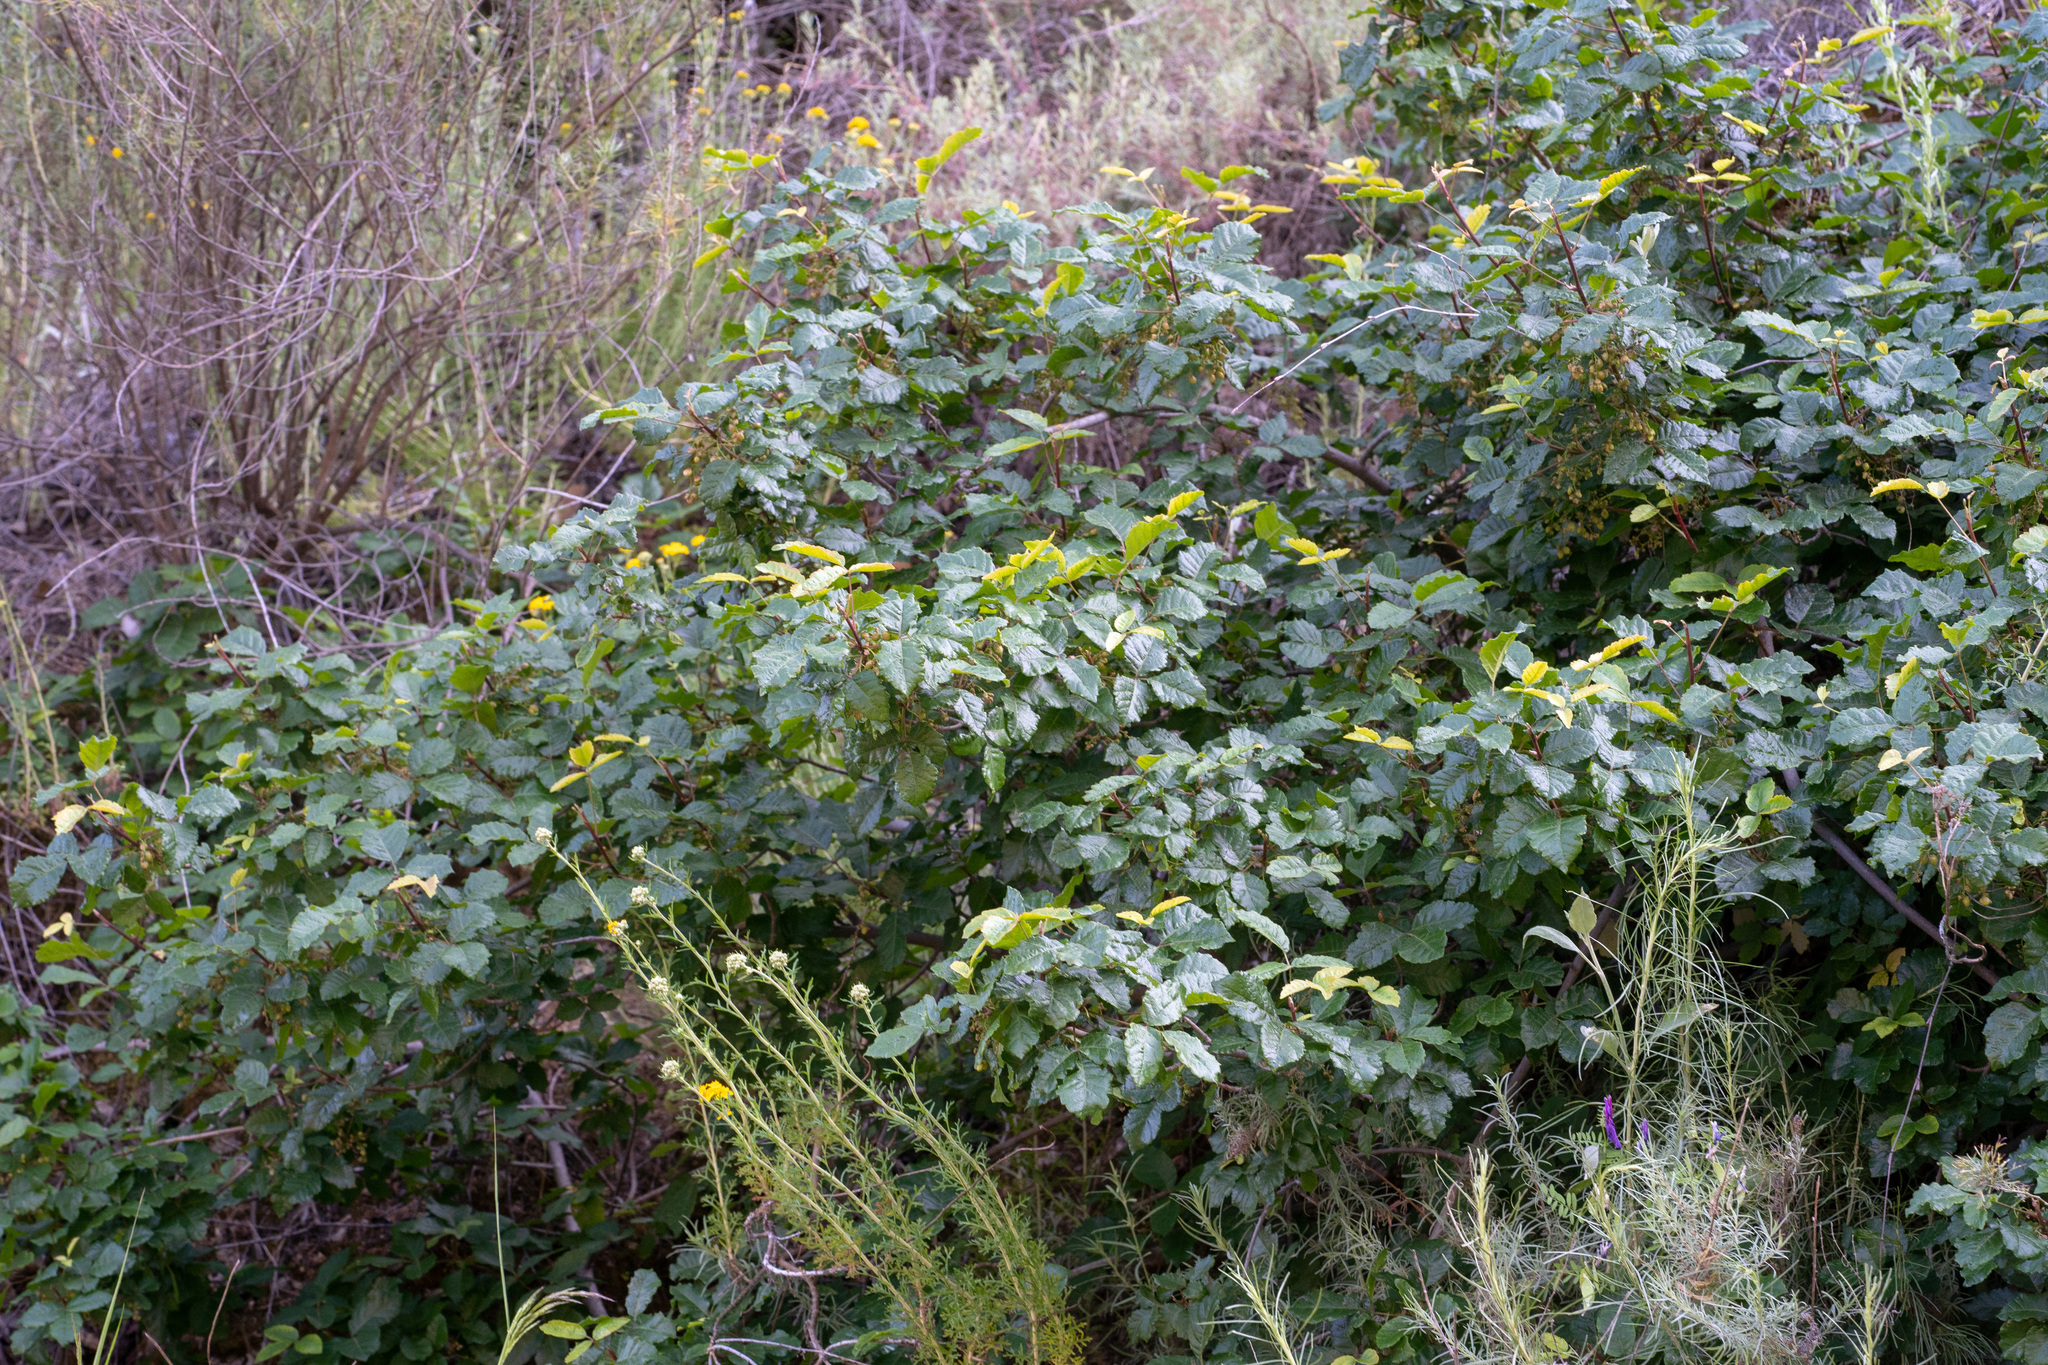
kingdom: Plantae
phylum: Tracheophyta
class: Magnoliopsida
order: Sapindales
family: Anacardiaceae
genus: Toxicodendron
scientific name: Toxicodendron diversilobum
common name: Pacific poison-oak
